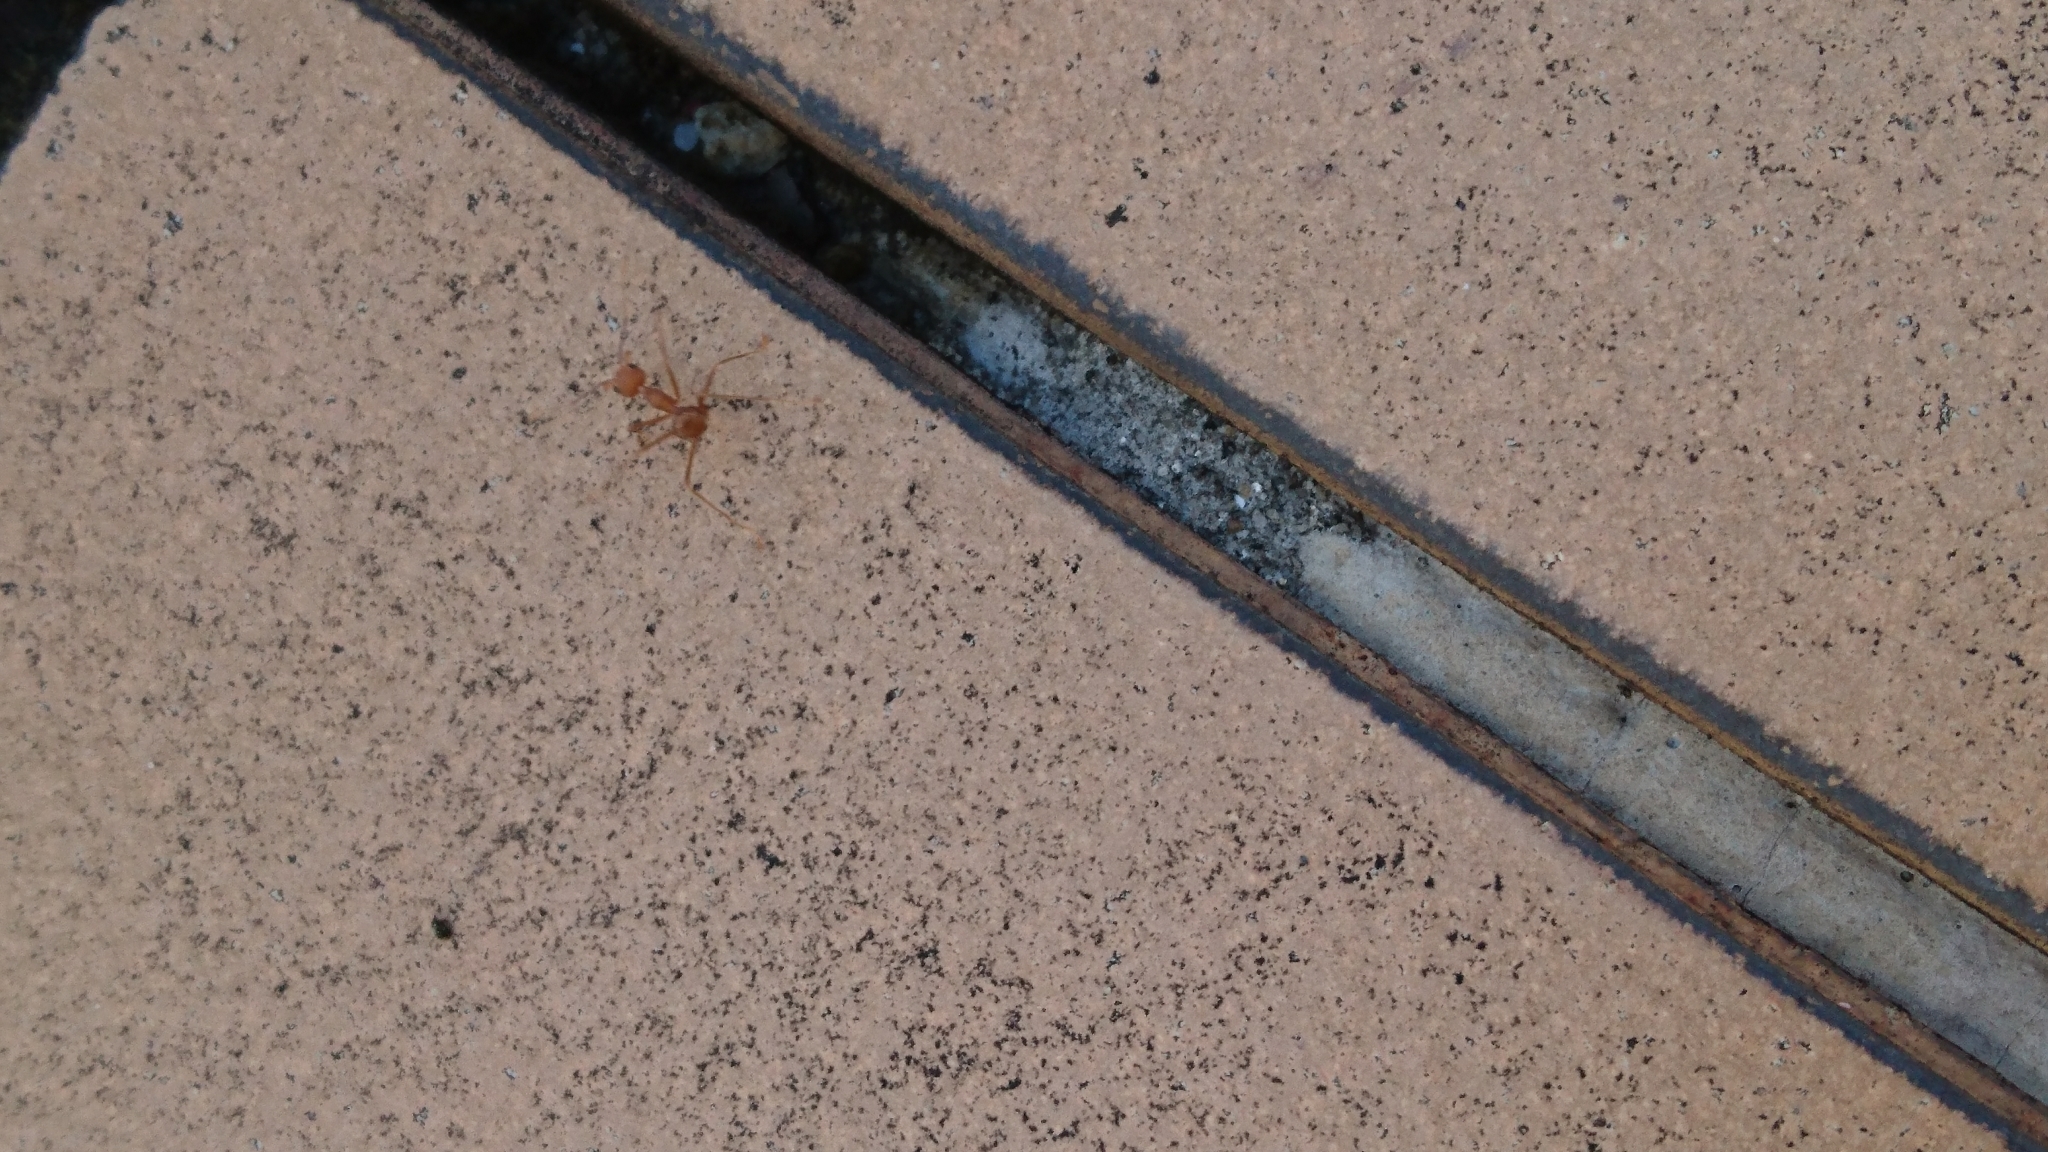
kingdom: Animalia
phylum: Arthropoda
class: Insecta
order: Hymenoptera
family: Formicidae
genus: Oecophylla
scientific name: Oecophylla smaragdina
